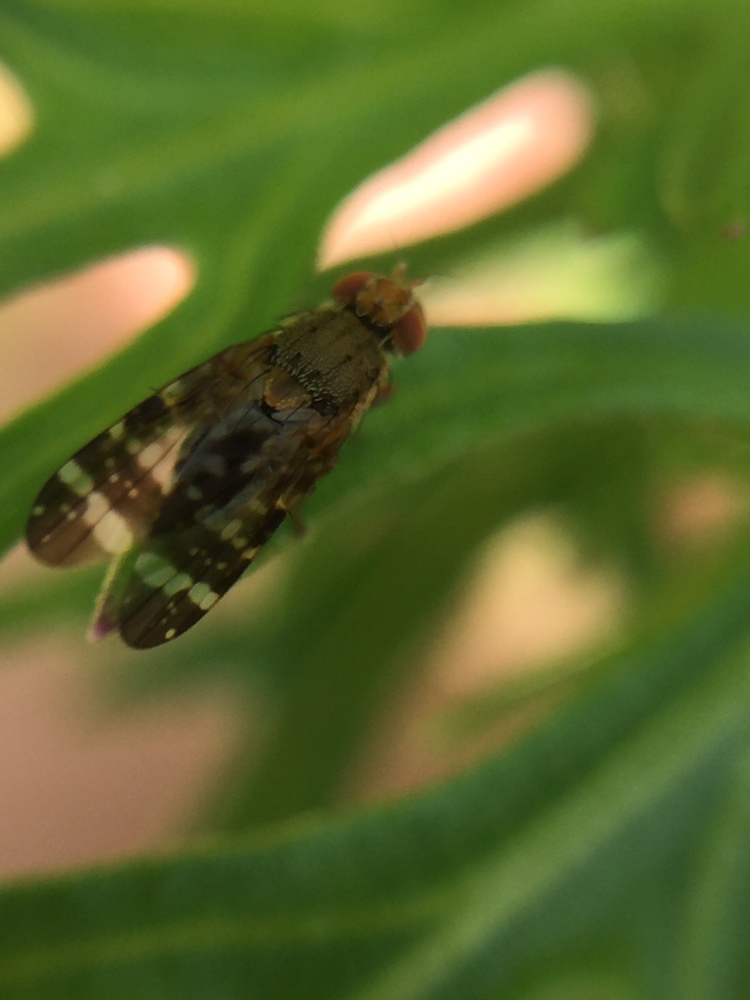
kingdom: Animalia
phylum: Arthropoda
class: Insecta
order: Diptera
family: Tephritidae
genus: Sphenella
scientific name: Sphenella
